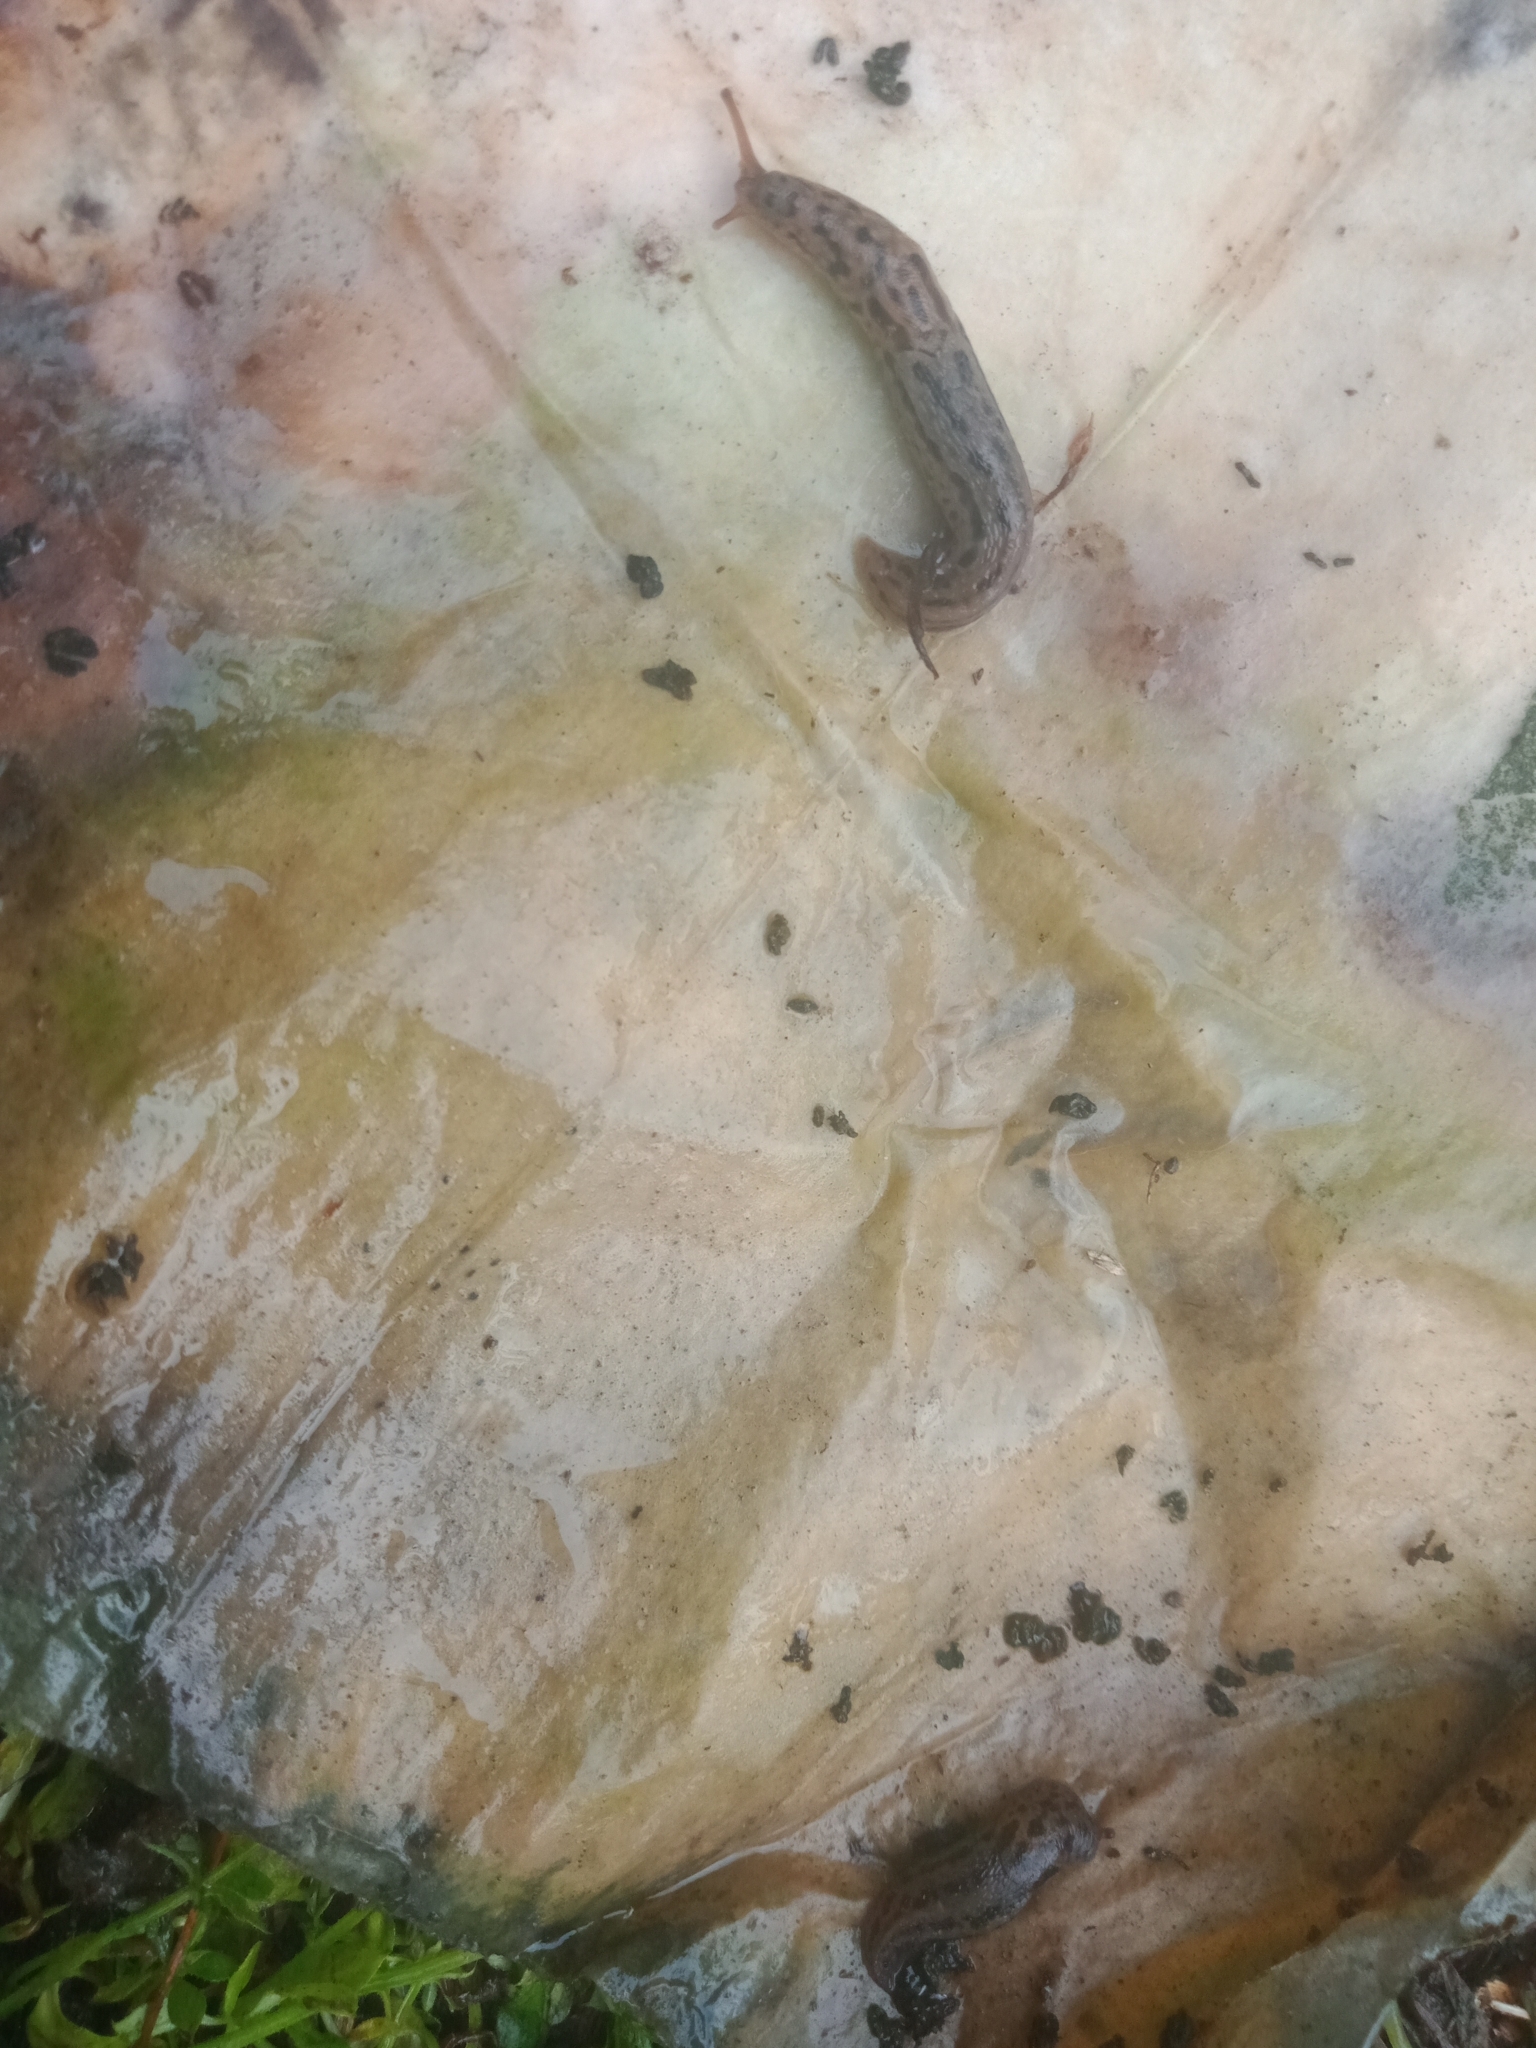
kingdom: Animalia
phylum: Mollusca
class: Gastropoda
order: Stylommatophora
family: Limacidae
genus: Limax
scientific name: Limax maximus
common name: Great grey slug
